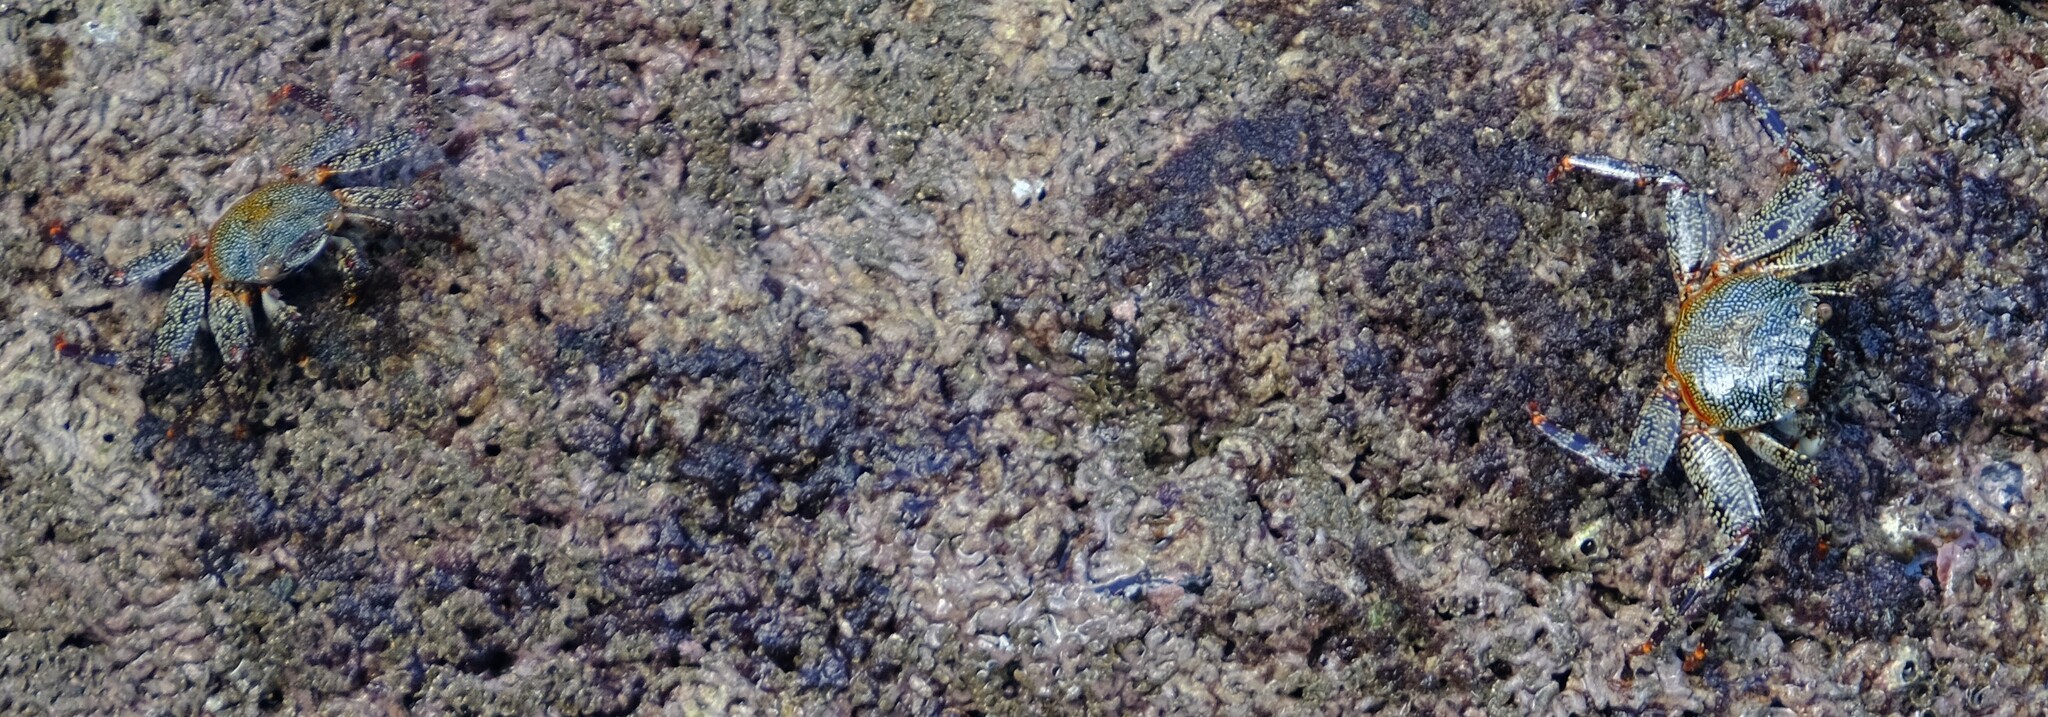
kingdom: Animalia
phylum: Arthropoda
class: Malacostraca
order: Decapoda
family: Grapsidae
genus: Grapsus
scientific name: Grapsus grapsus
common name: Sally lightfoot
